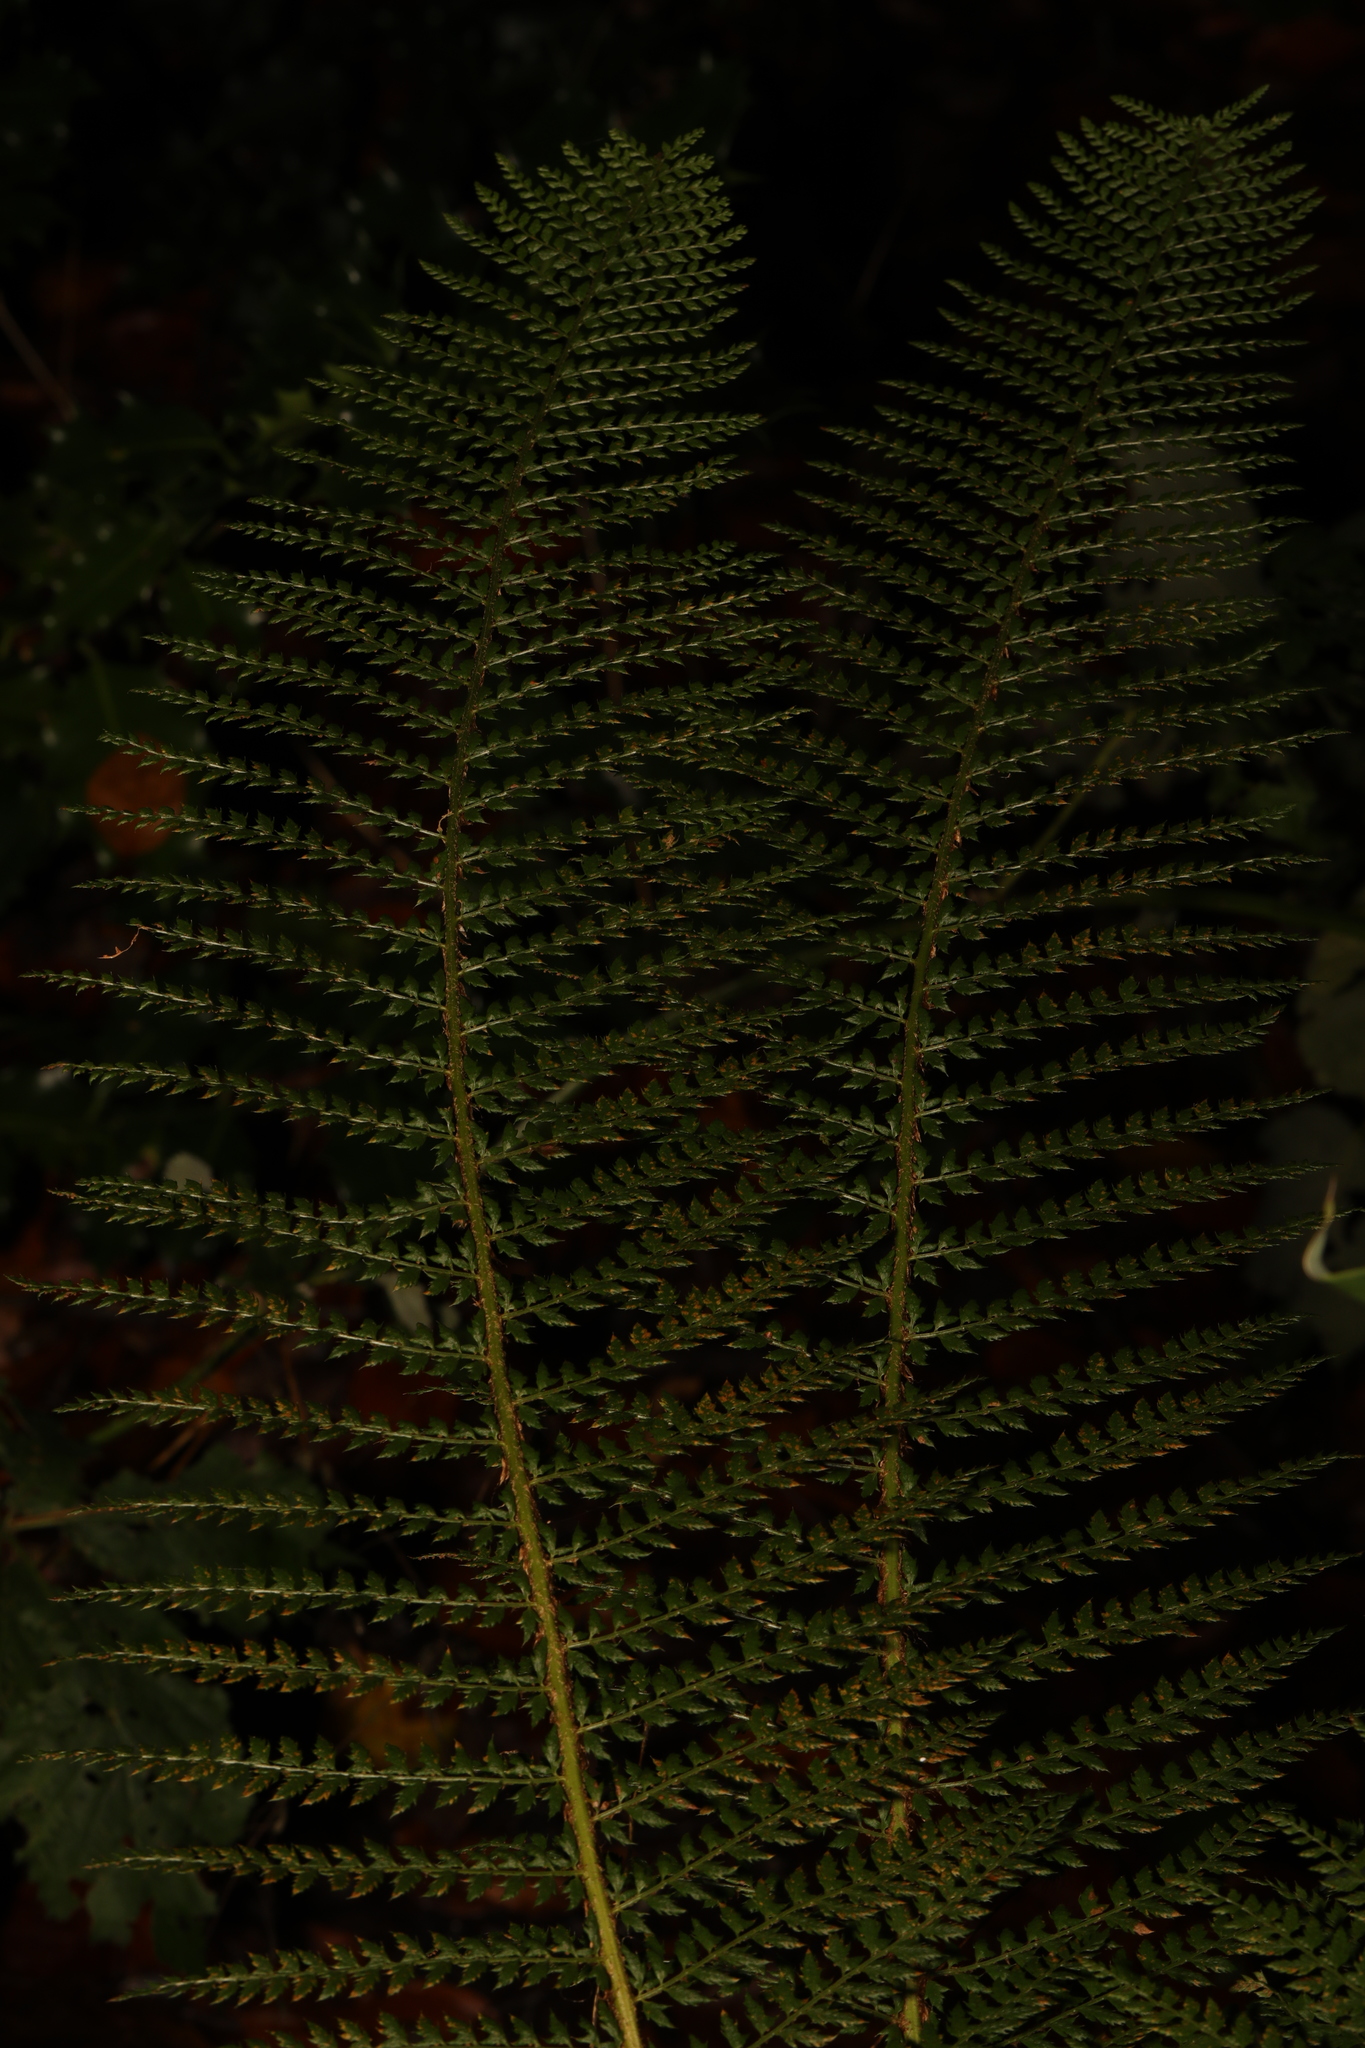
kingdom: Plantae
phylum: Tracheophyta
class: Polypodiopsida
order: Polypodiales
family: Dryopteridaceae
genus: Polystichum
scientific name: Polystichum setiferum
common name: Soft shield-fern
